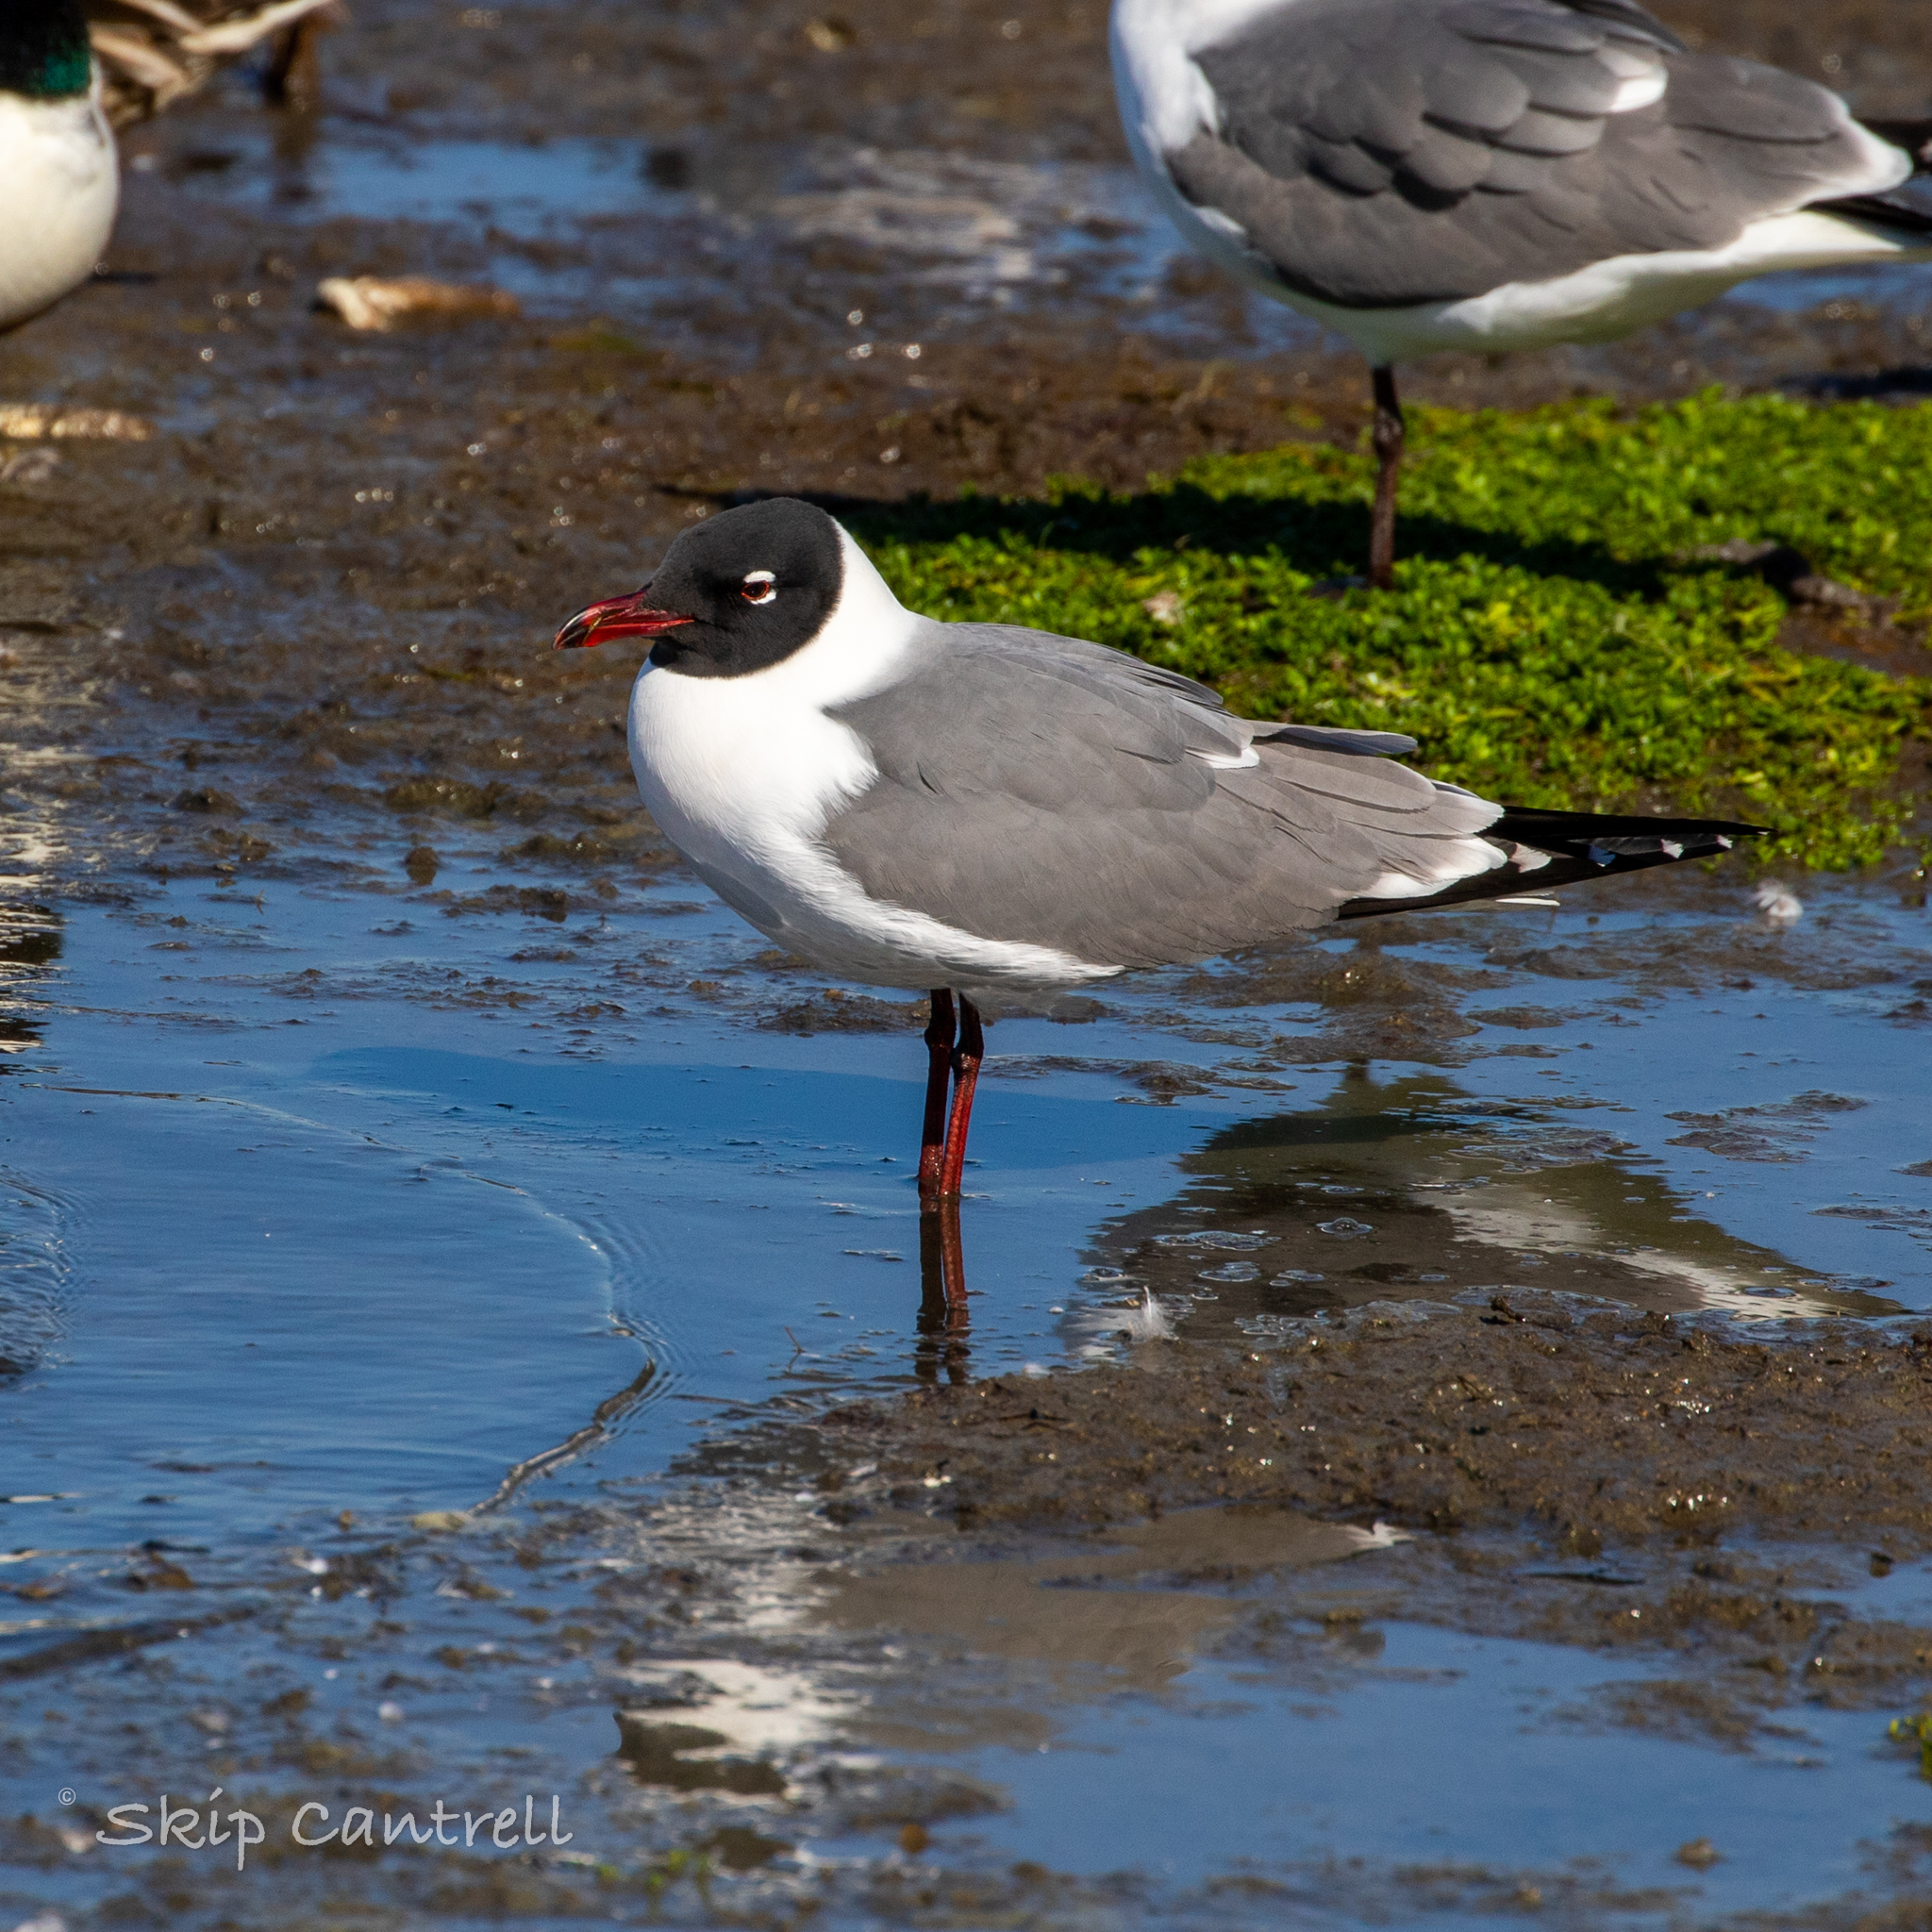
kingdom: Animalia
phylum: Chordata
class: Aves
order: Charadriiformes
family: Laridae
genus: Leucophaeus
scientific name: Leucophaeus atricilla
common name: Laughing gull
